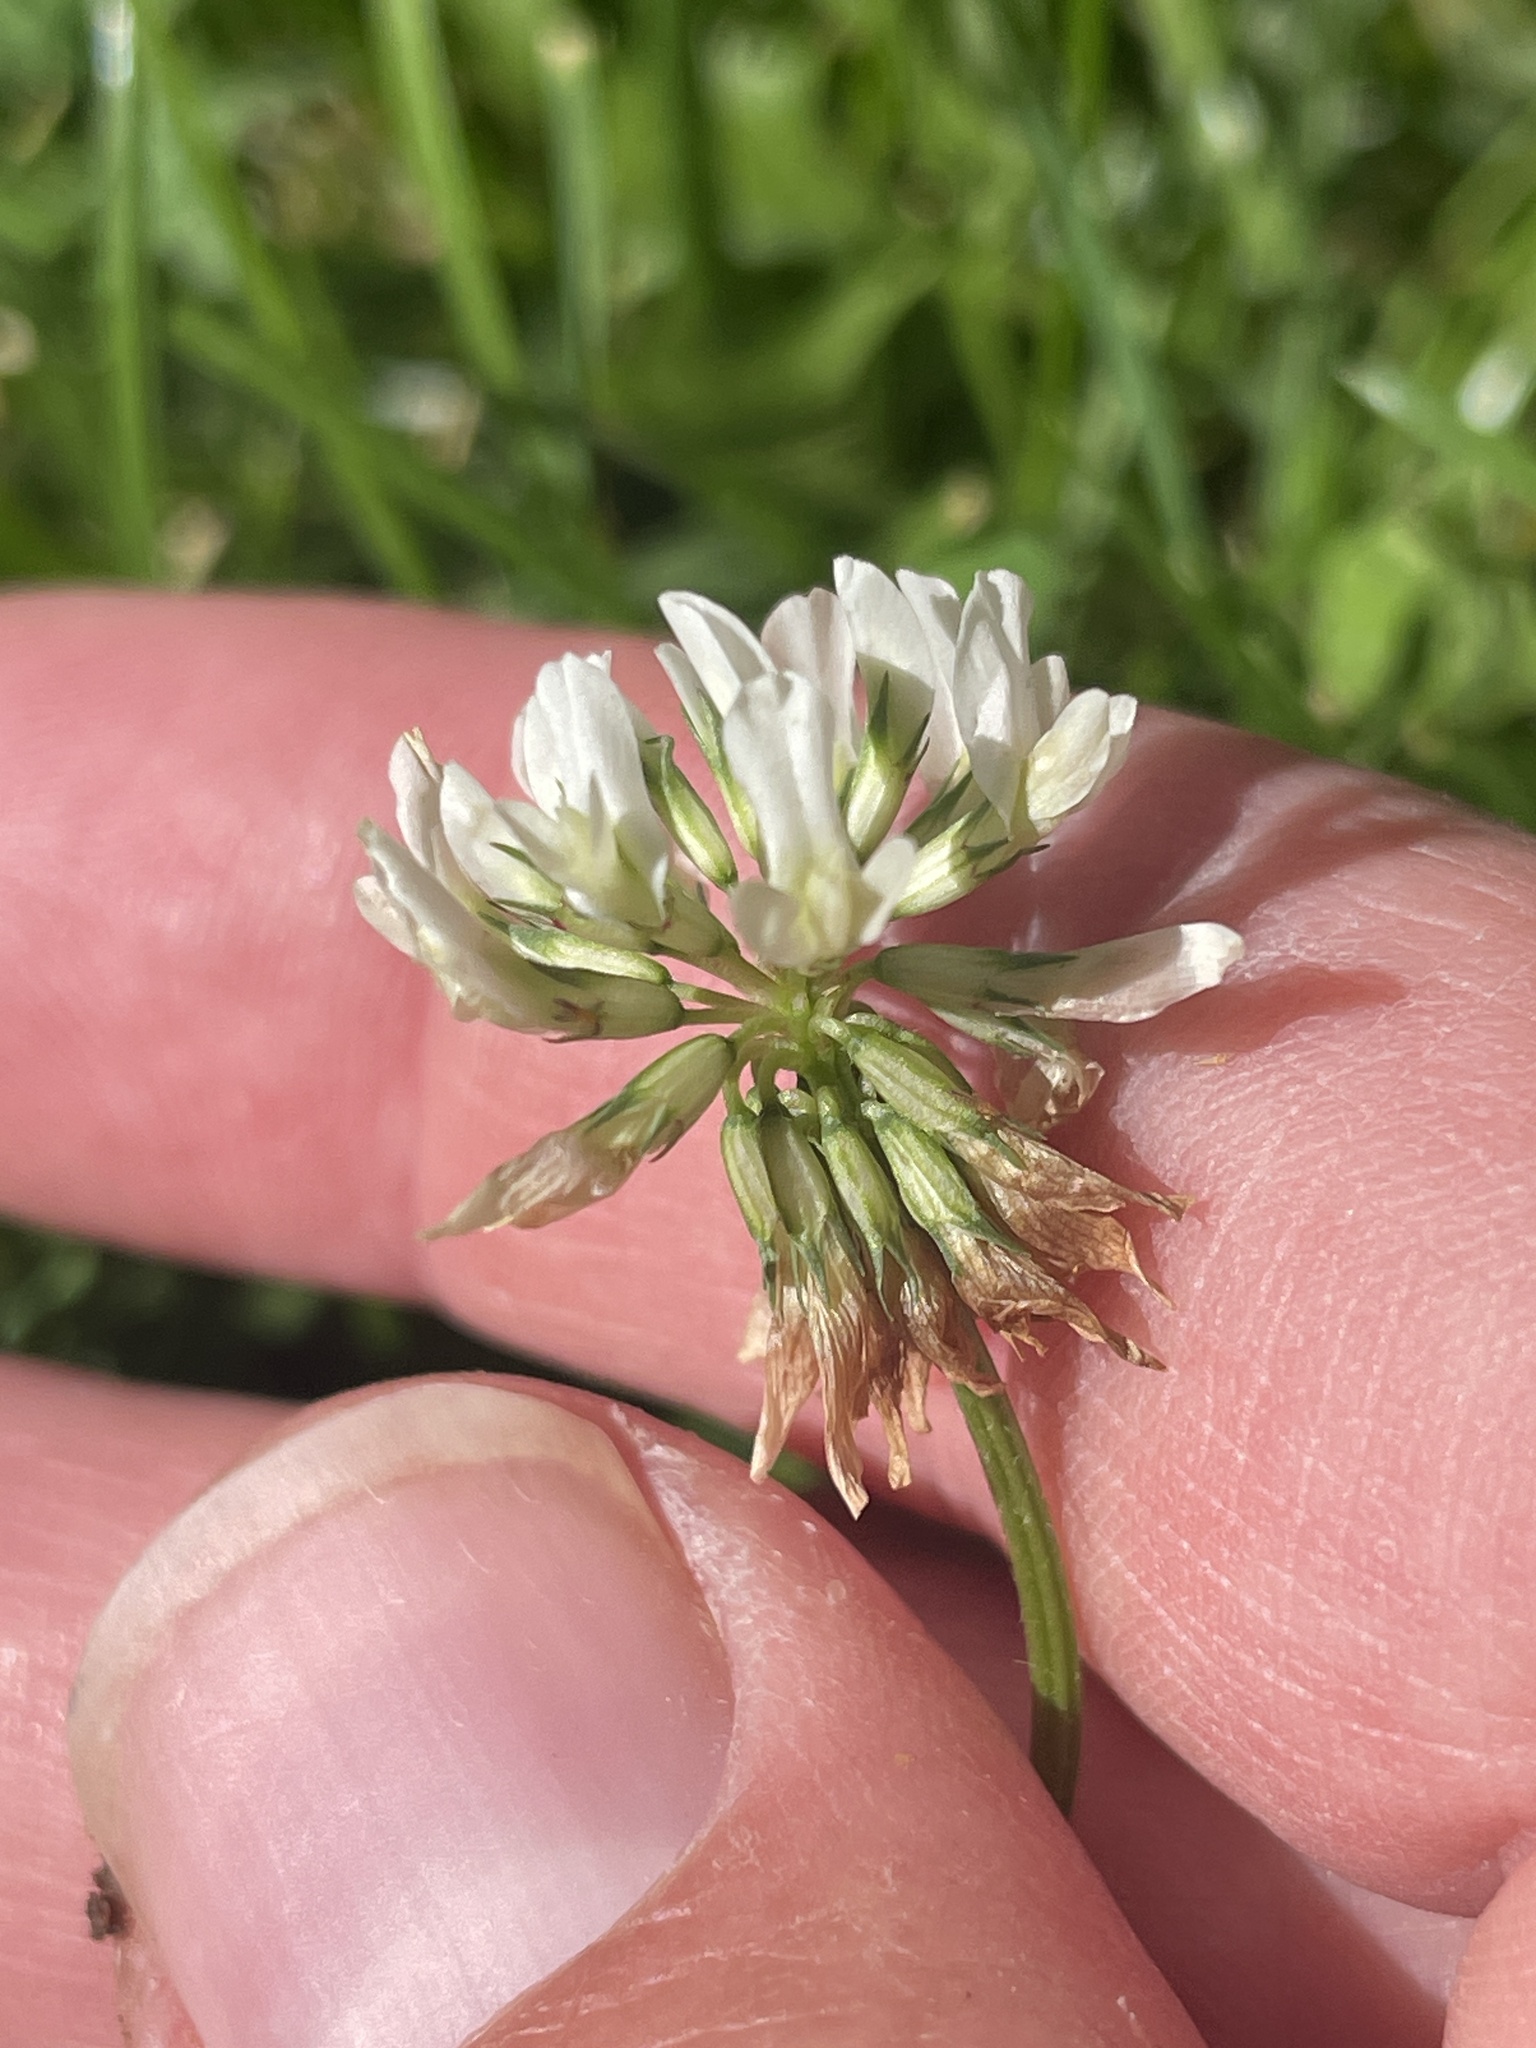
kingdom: Plantae
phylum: Tracheophyta
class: Magnoliopsida
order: Fabales
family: Fabaceae
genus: Trifolium
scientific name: Trifolium repens
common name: White clover
